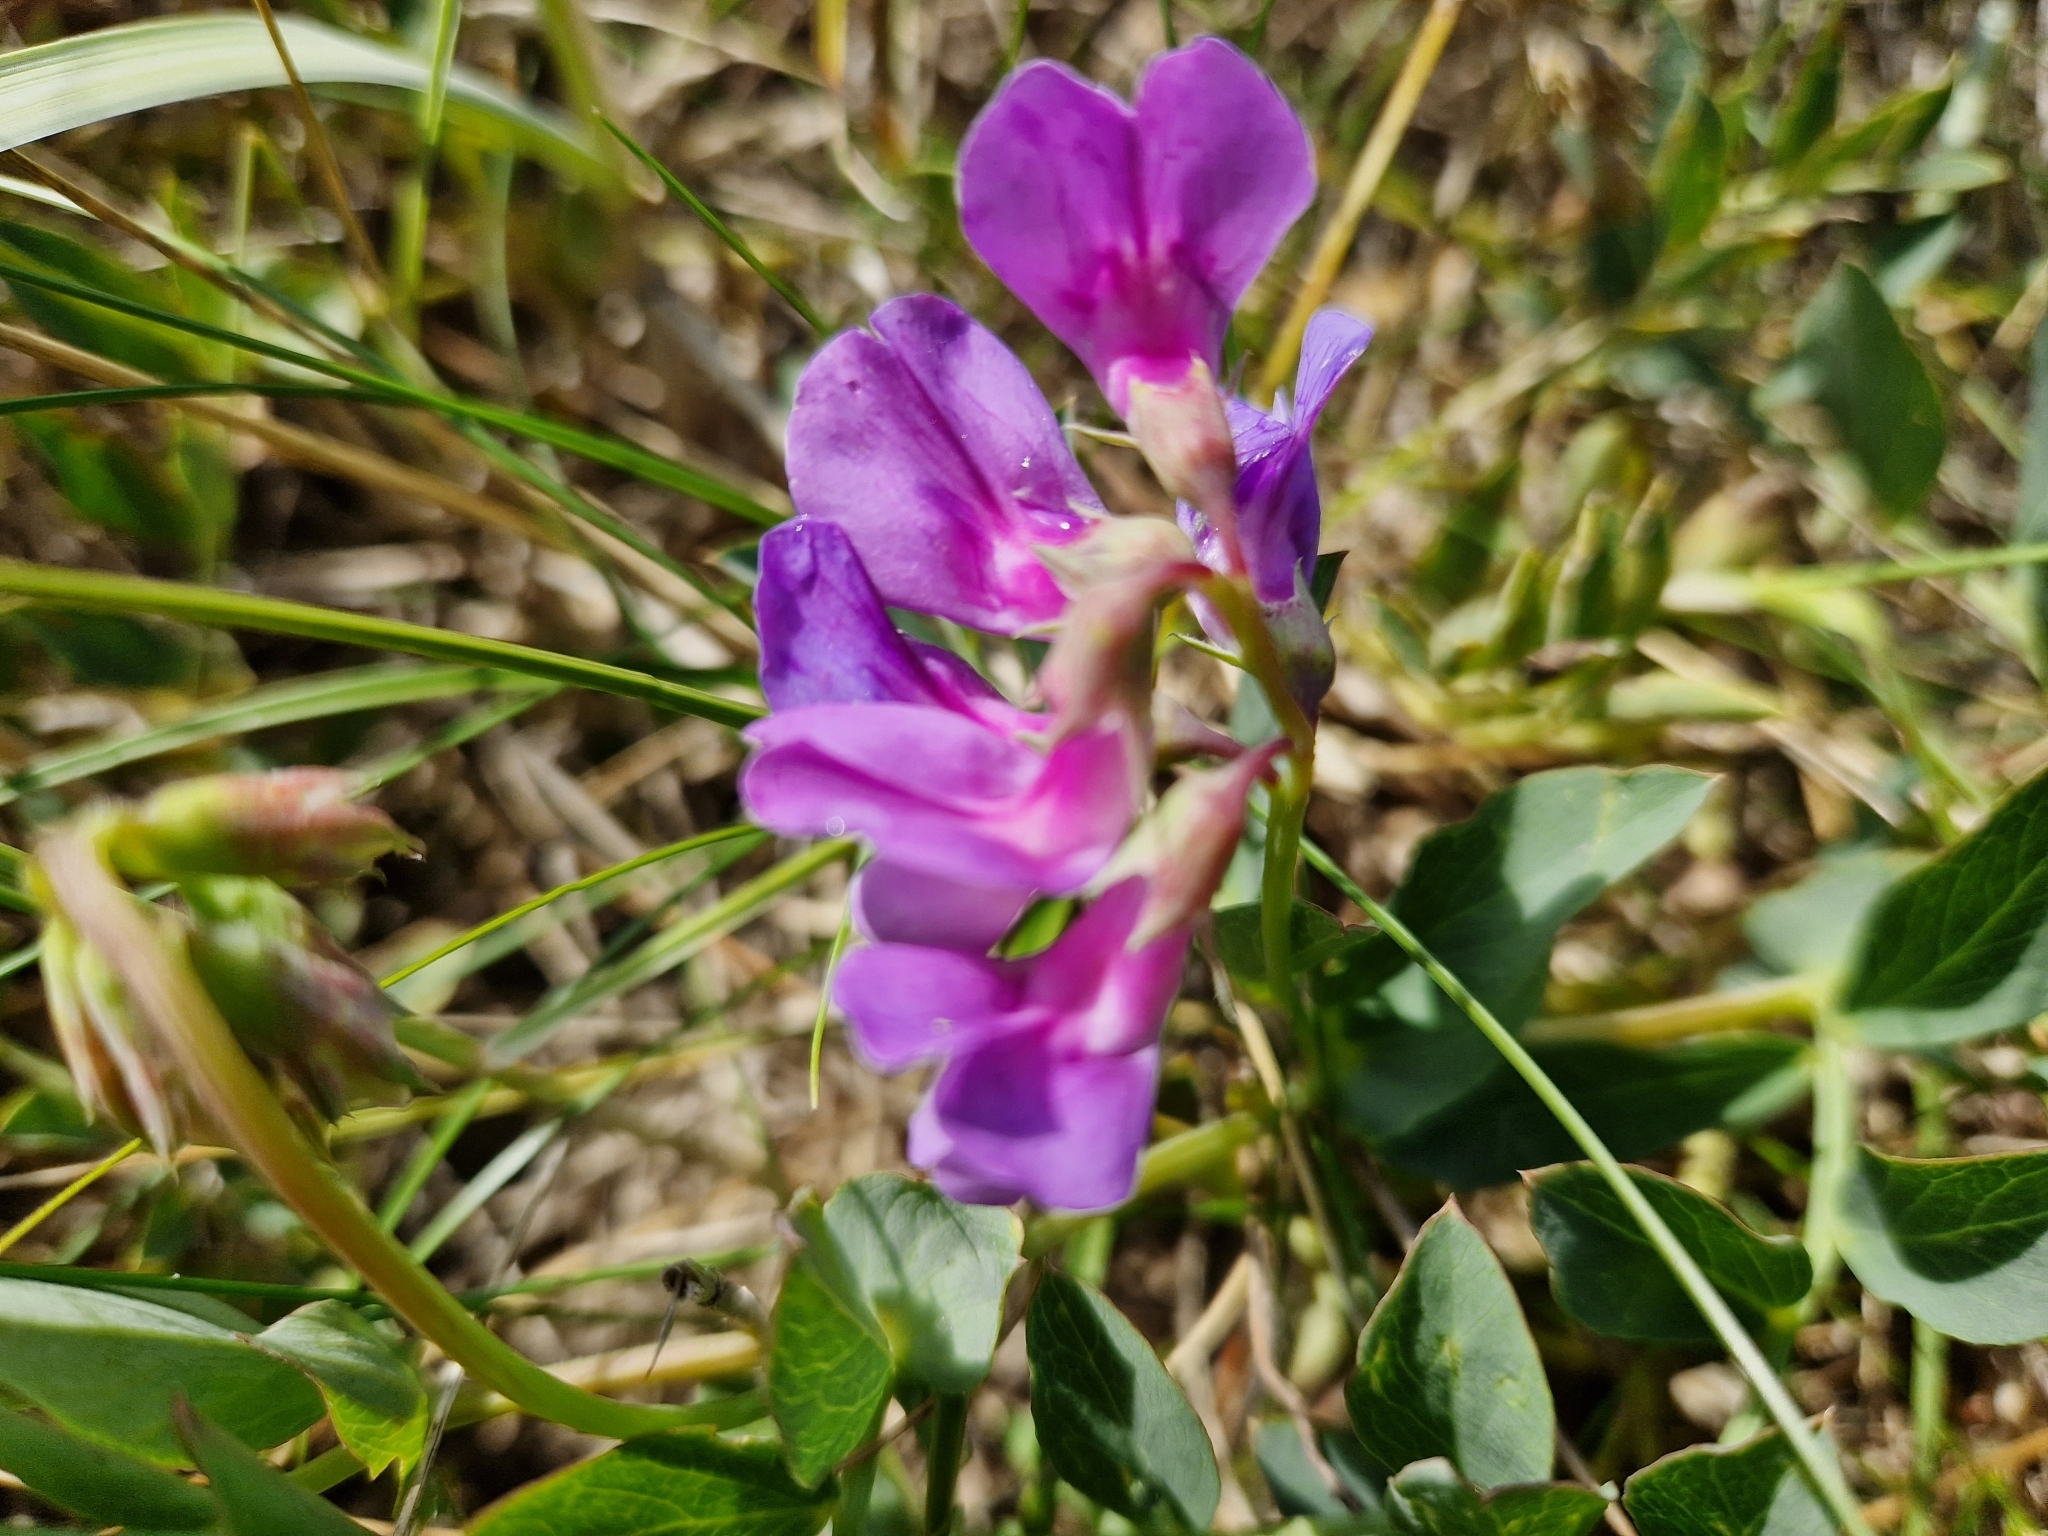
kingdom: Plantae
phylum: Tracheophyta
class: Magnoliopsida
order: Fabales
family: Fabaceae
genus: Lathyrus
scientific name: Lathyrus japonicus
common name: Sea pea
